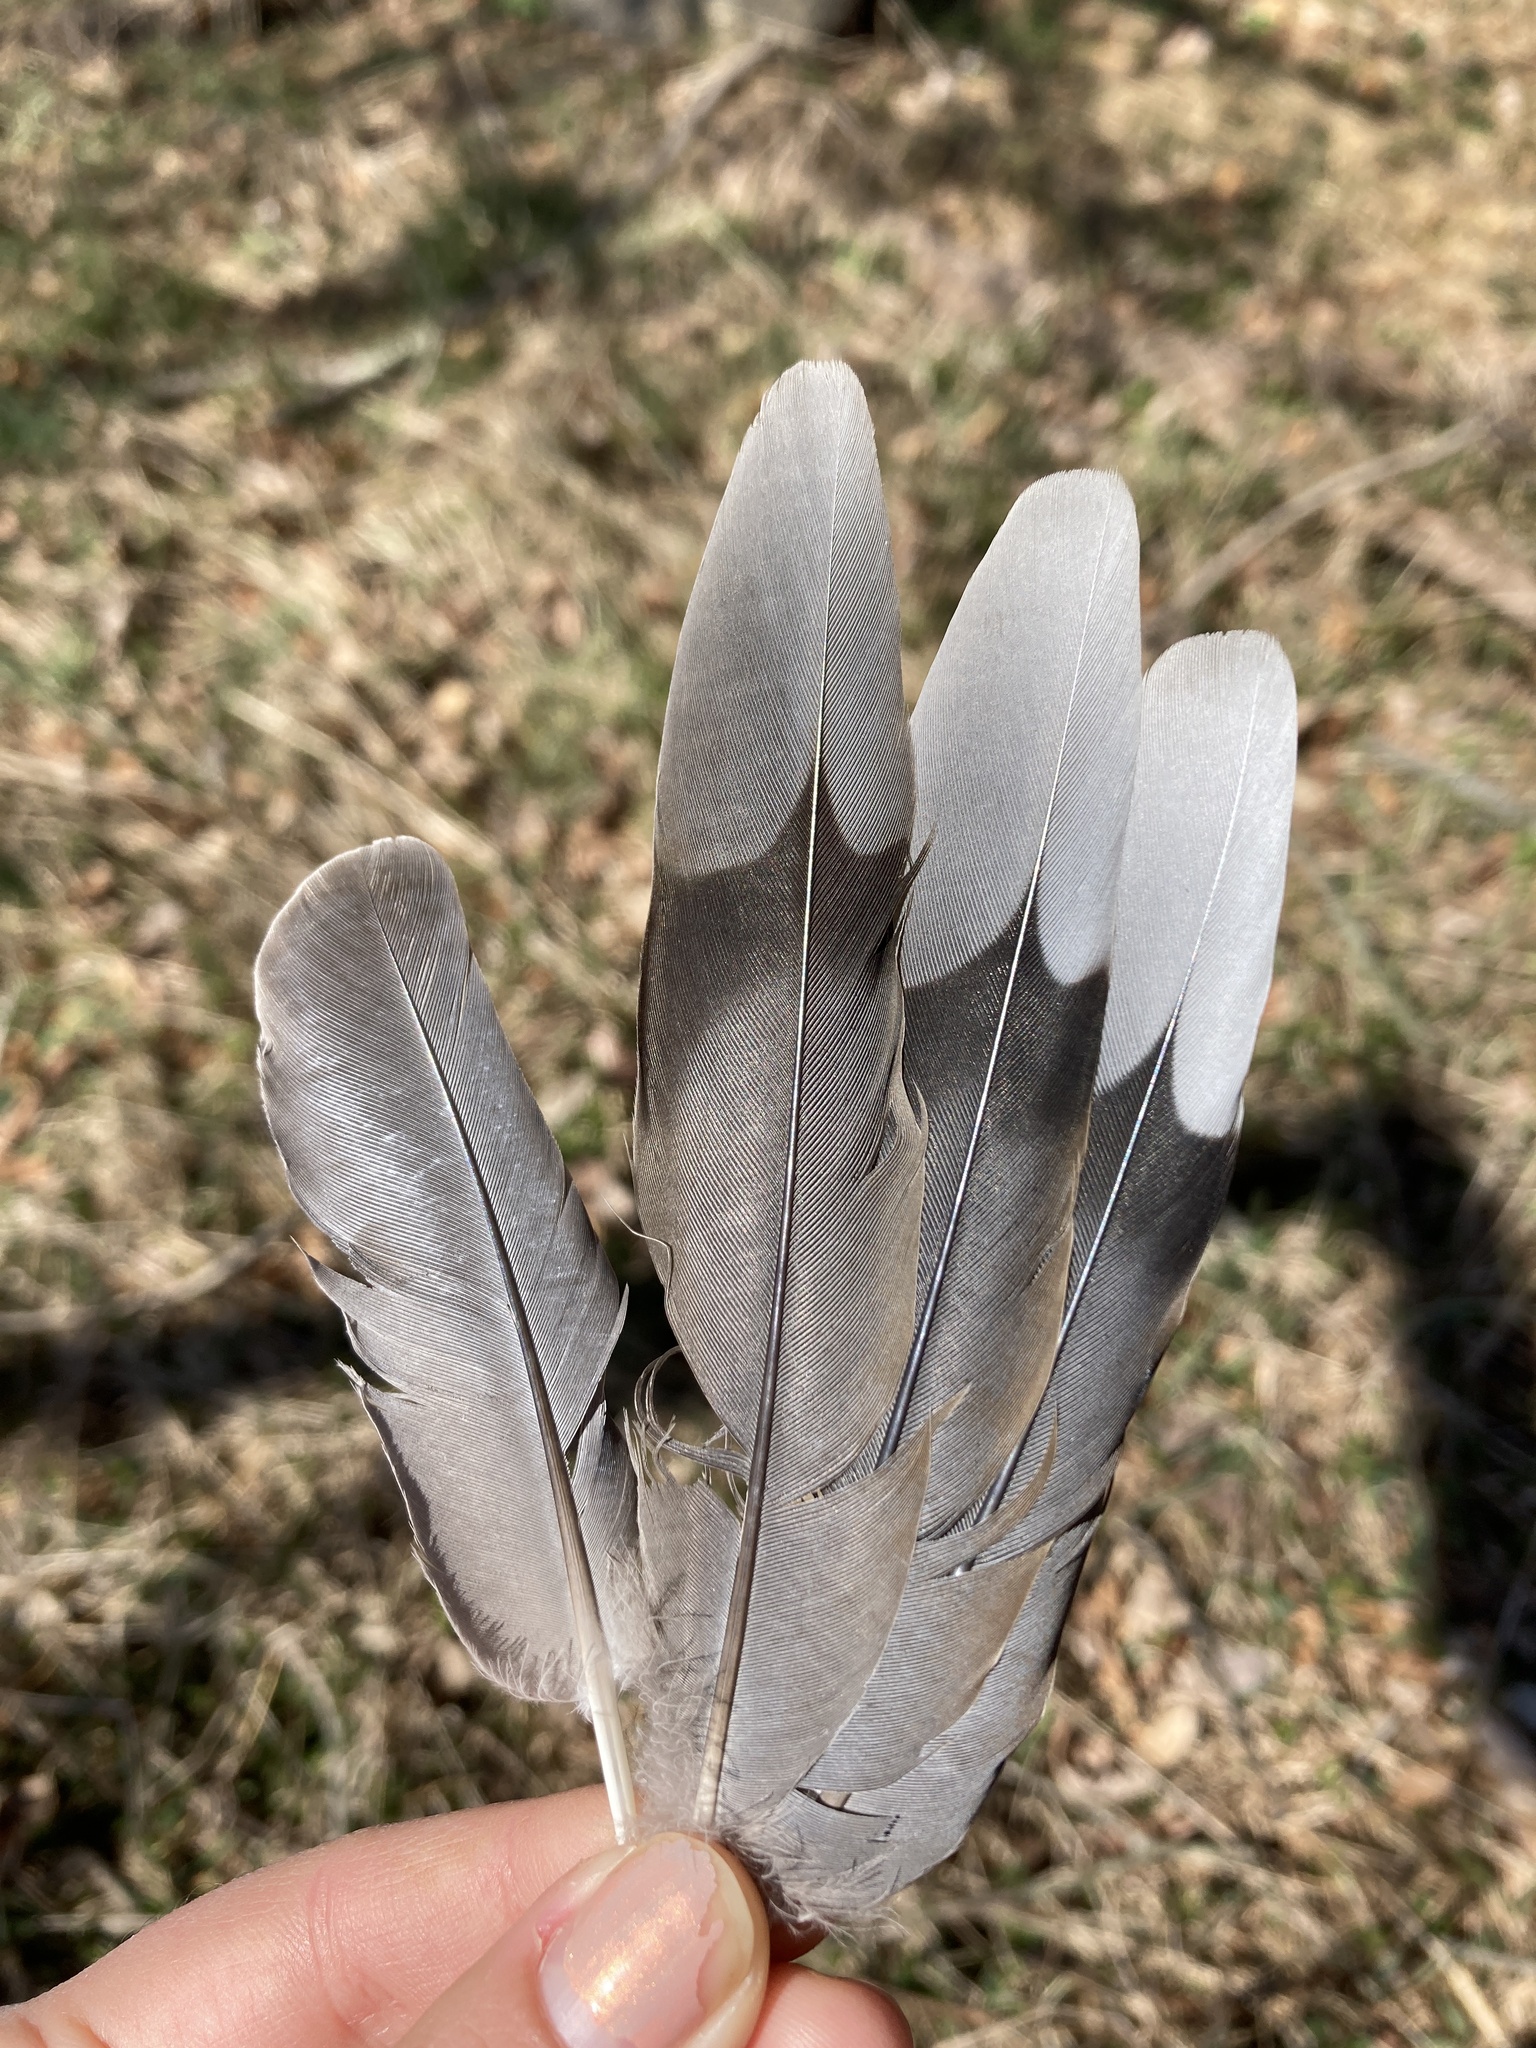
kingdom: Animalia
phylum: Chordata
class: Aves
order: Columbiformes
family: Columbidae
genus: Zenaida
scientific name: Zenaida macroura
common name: Mourning dove
